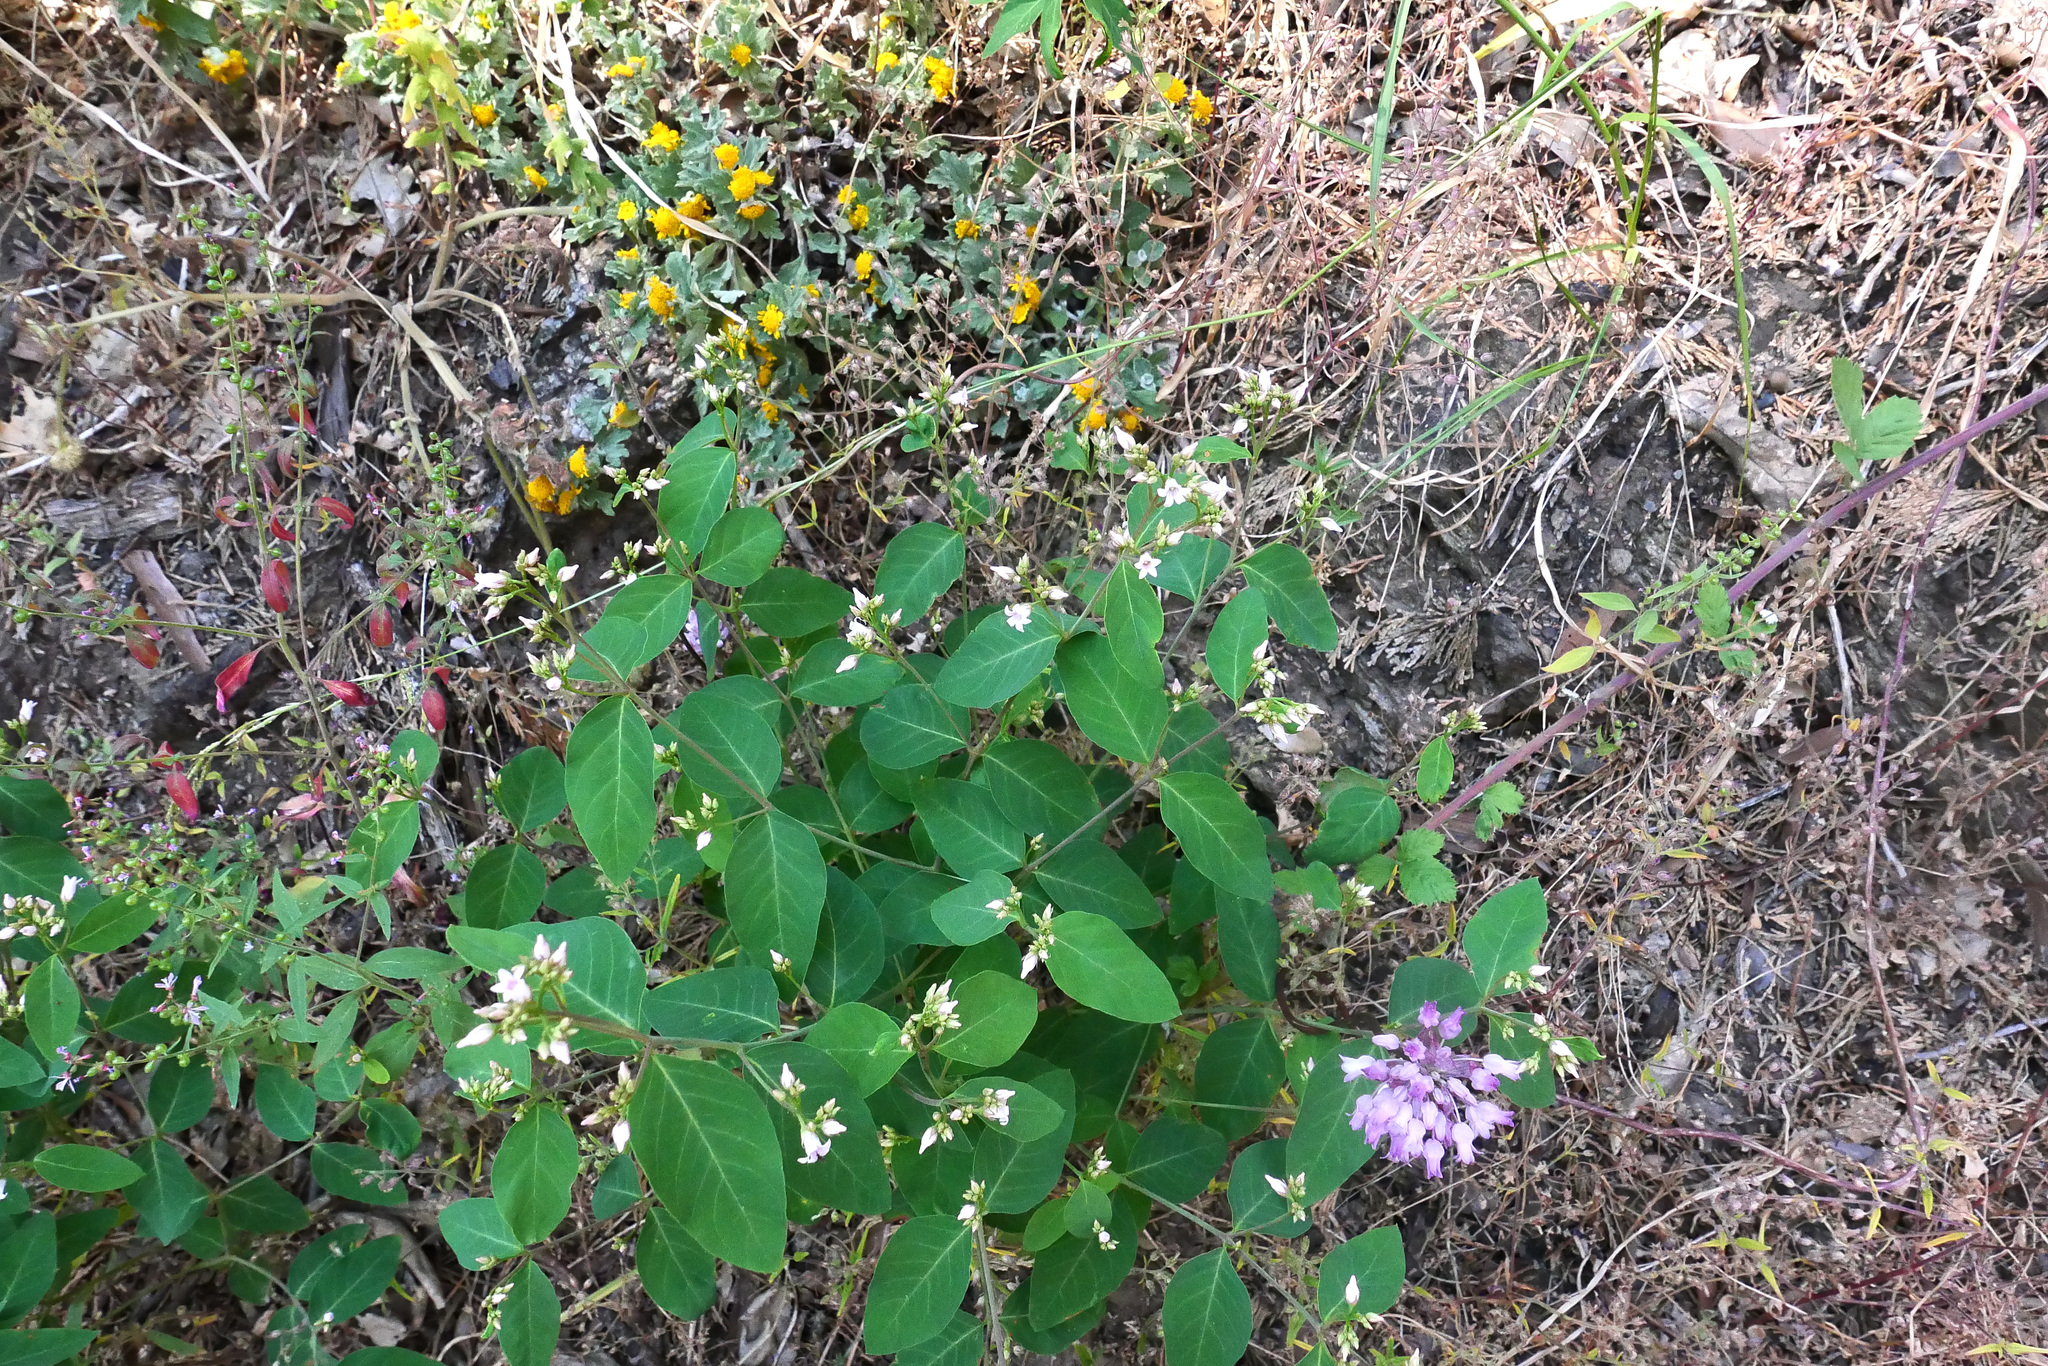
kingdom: Plantae
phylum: Tracheophyta
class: Magnoliopsida
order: Gentianales
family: Apocynaceae
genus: Apocynum
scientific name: Apocynum androsaemifolium
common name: Spreading dogbane
